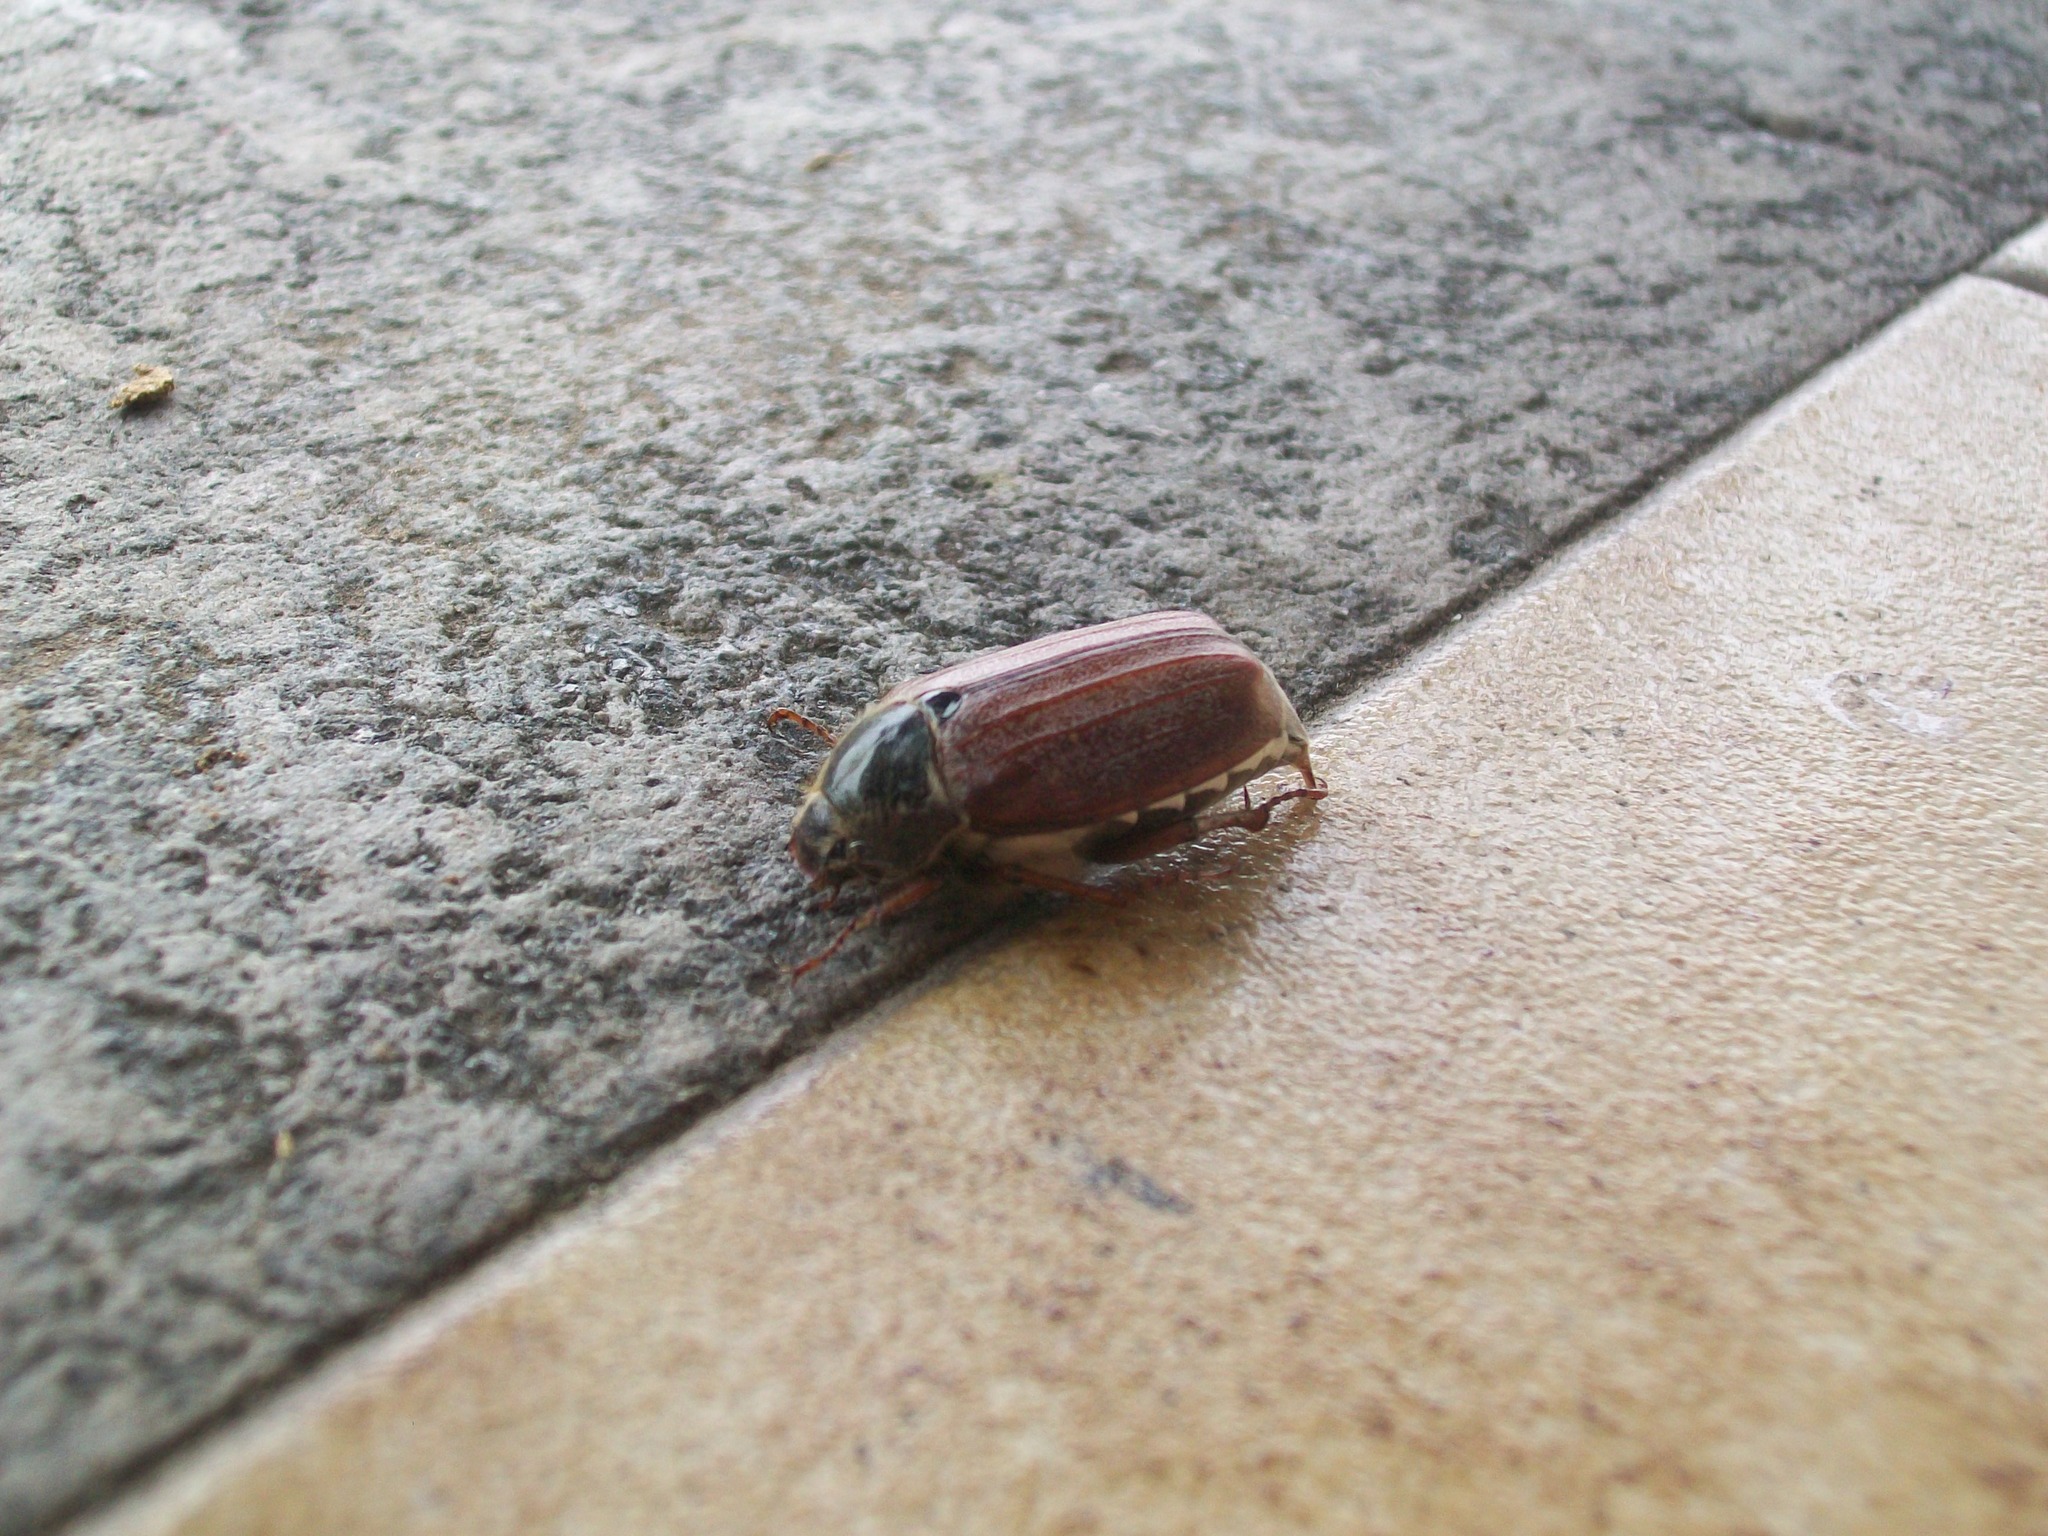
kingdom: Animalia
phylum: Arthropoda
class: Insecta
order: Coleoptera
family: Scarabaeidae
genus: Melolontha
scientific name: Melolontha melolontha
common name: Cockchafer maybeetle
